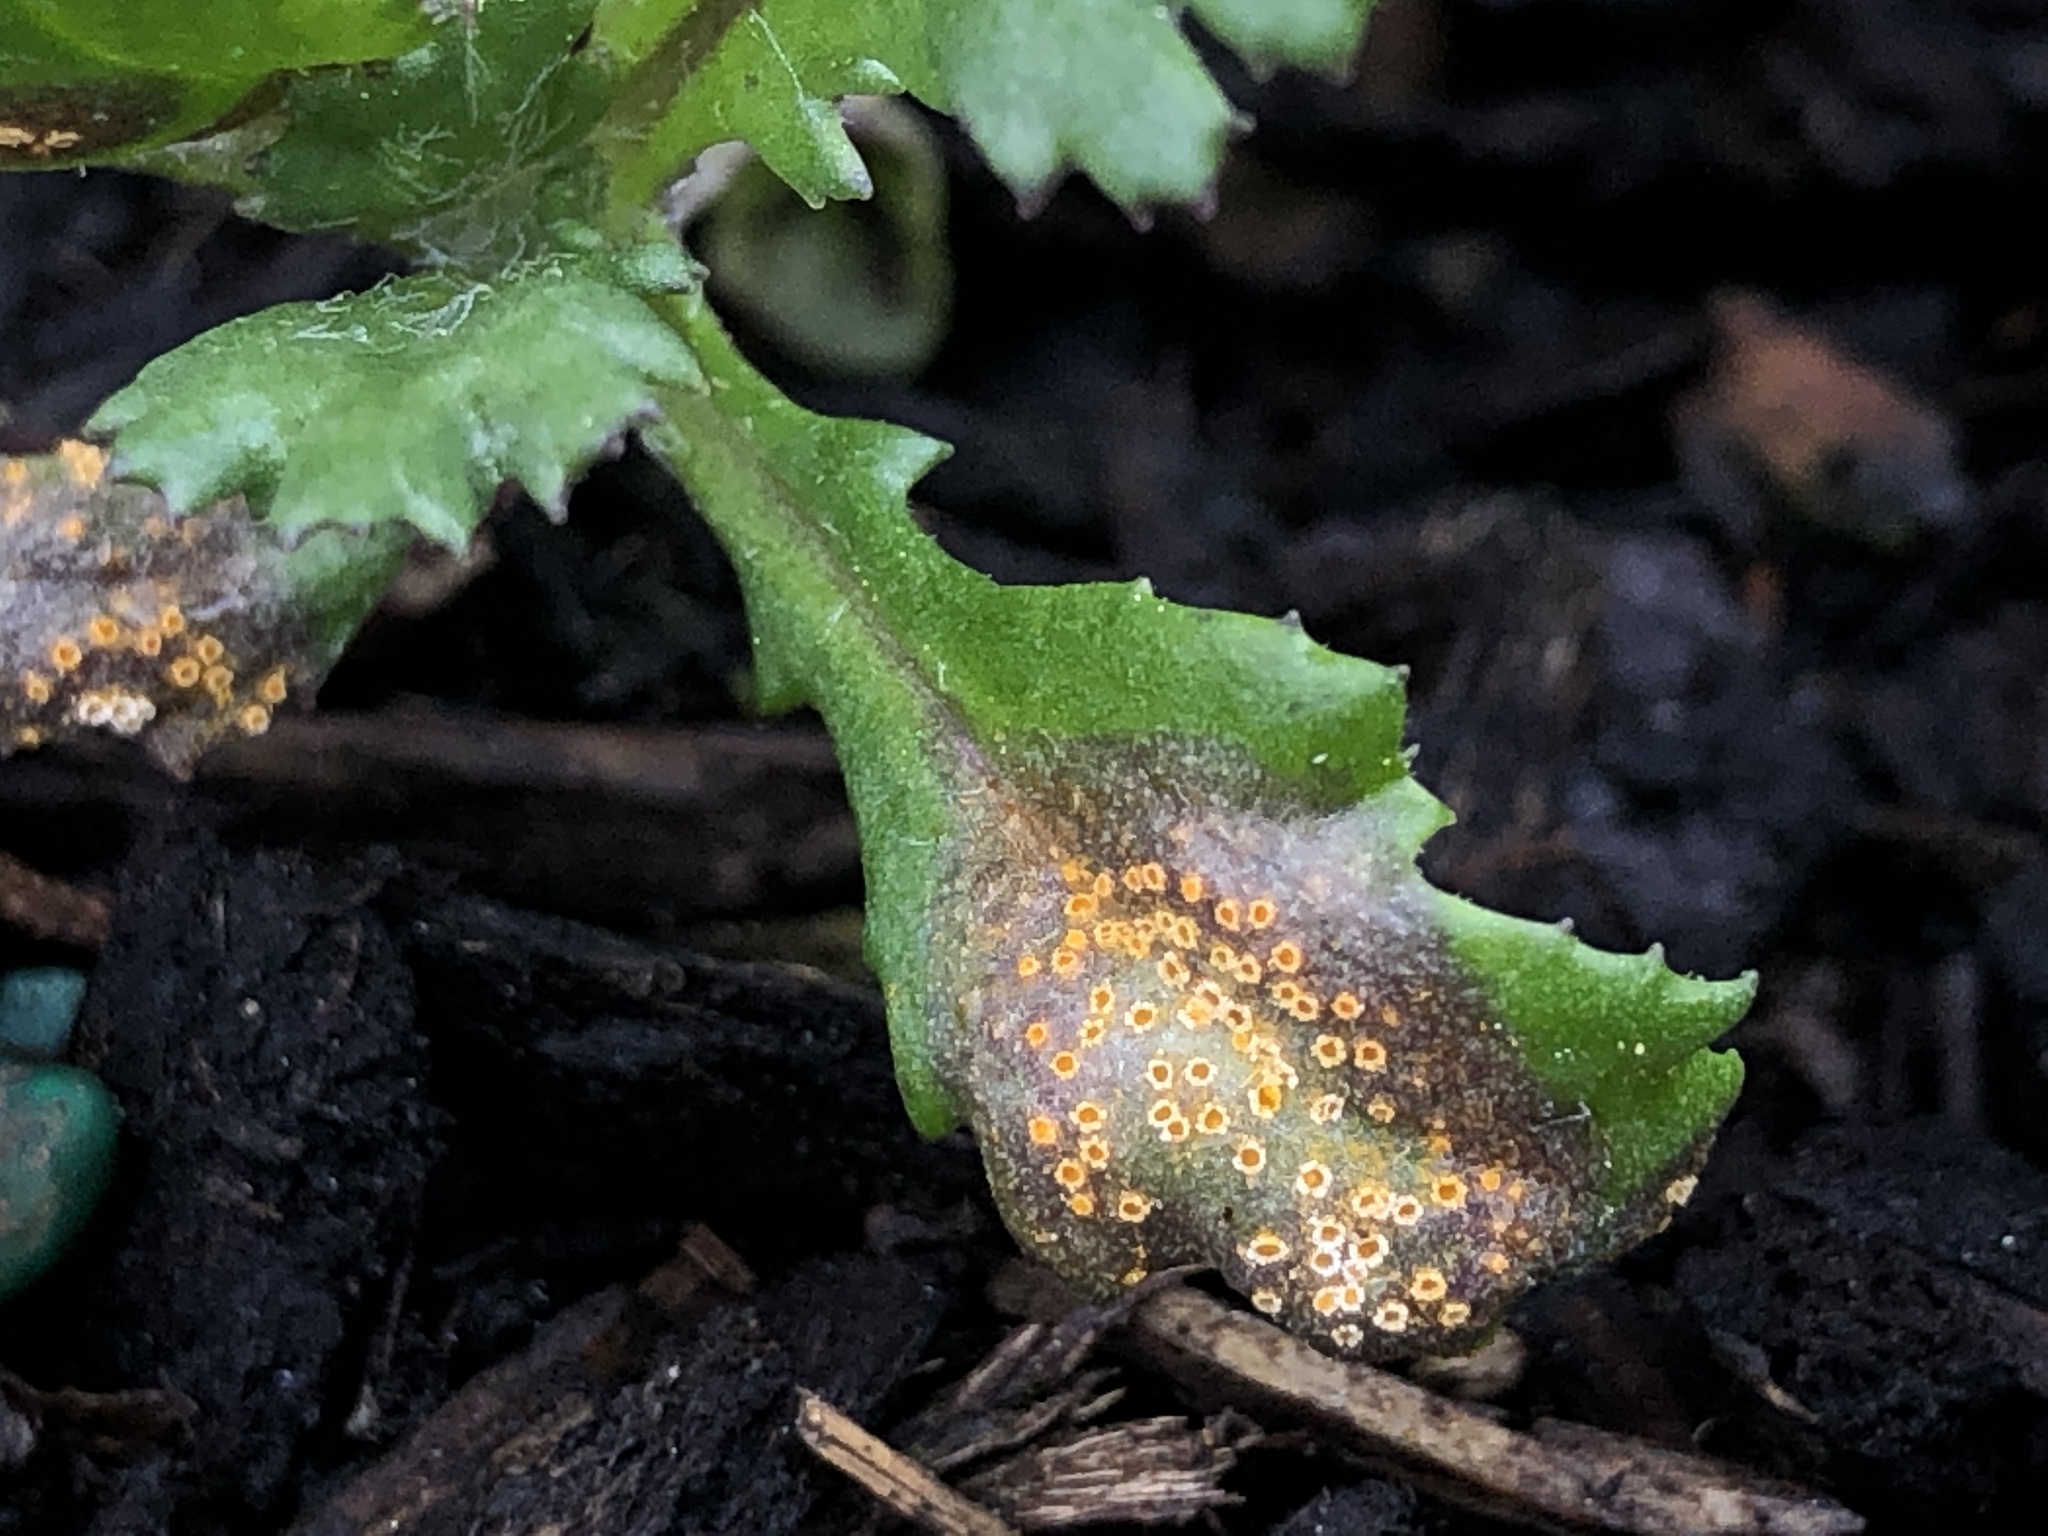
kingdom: Fungi
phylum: Basidiomycota
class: Pucciniomycetes
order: Pucciniales
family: Pucciniaceae
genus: Puccinia
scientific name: Puccinia lagenophorae
